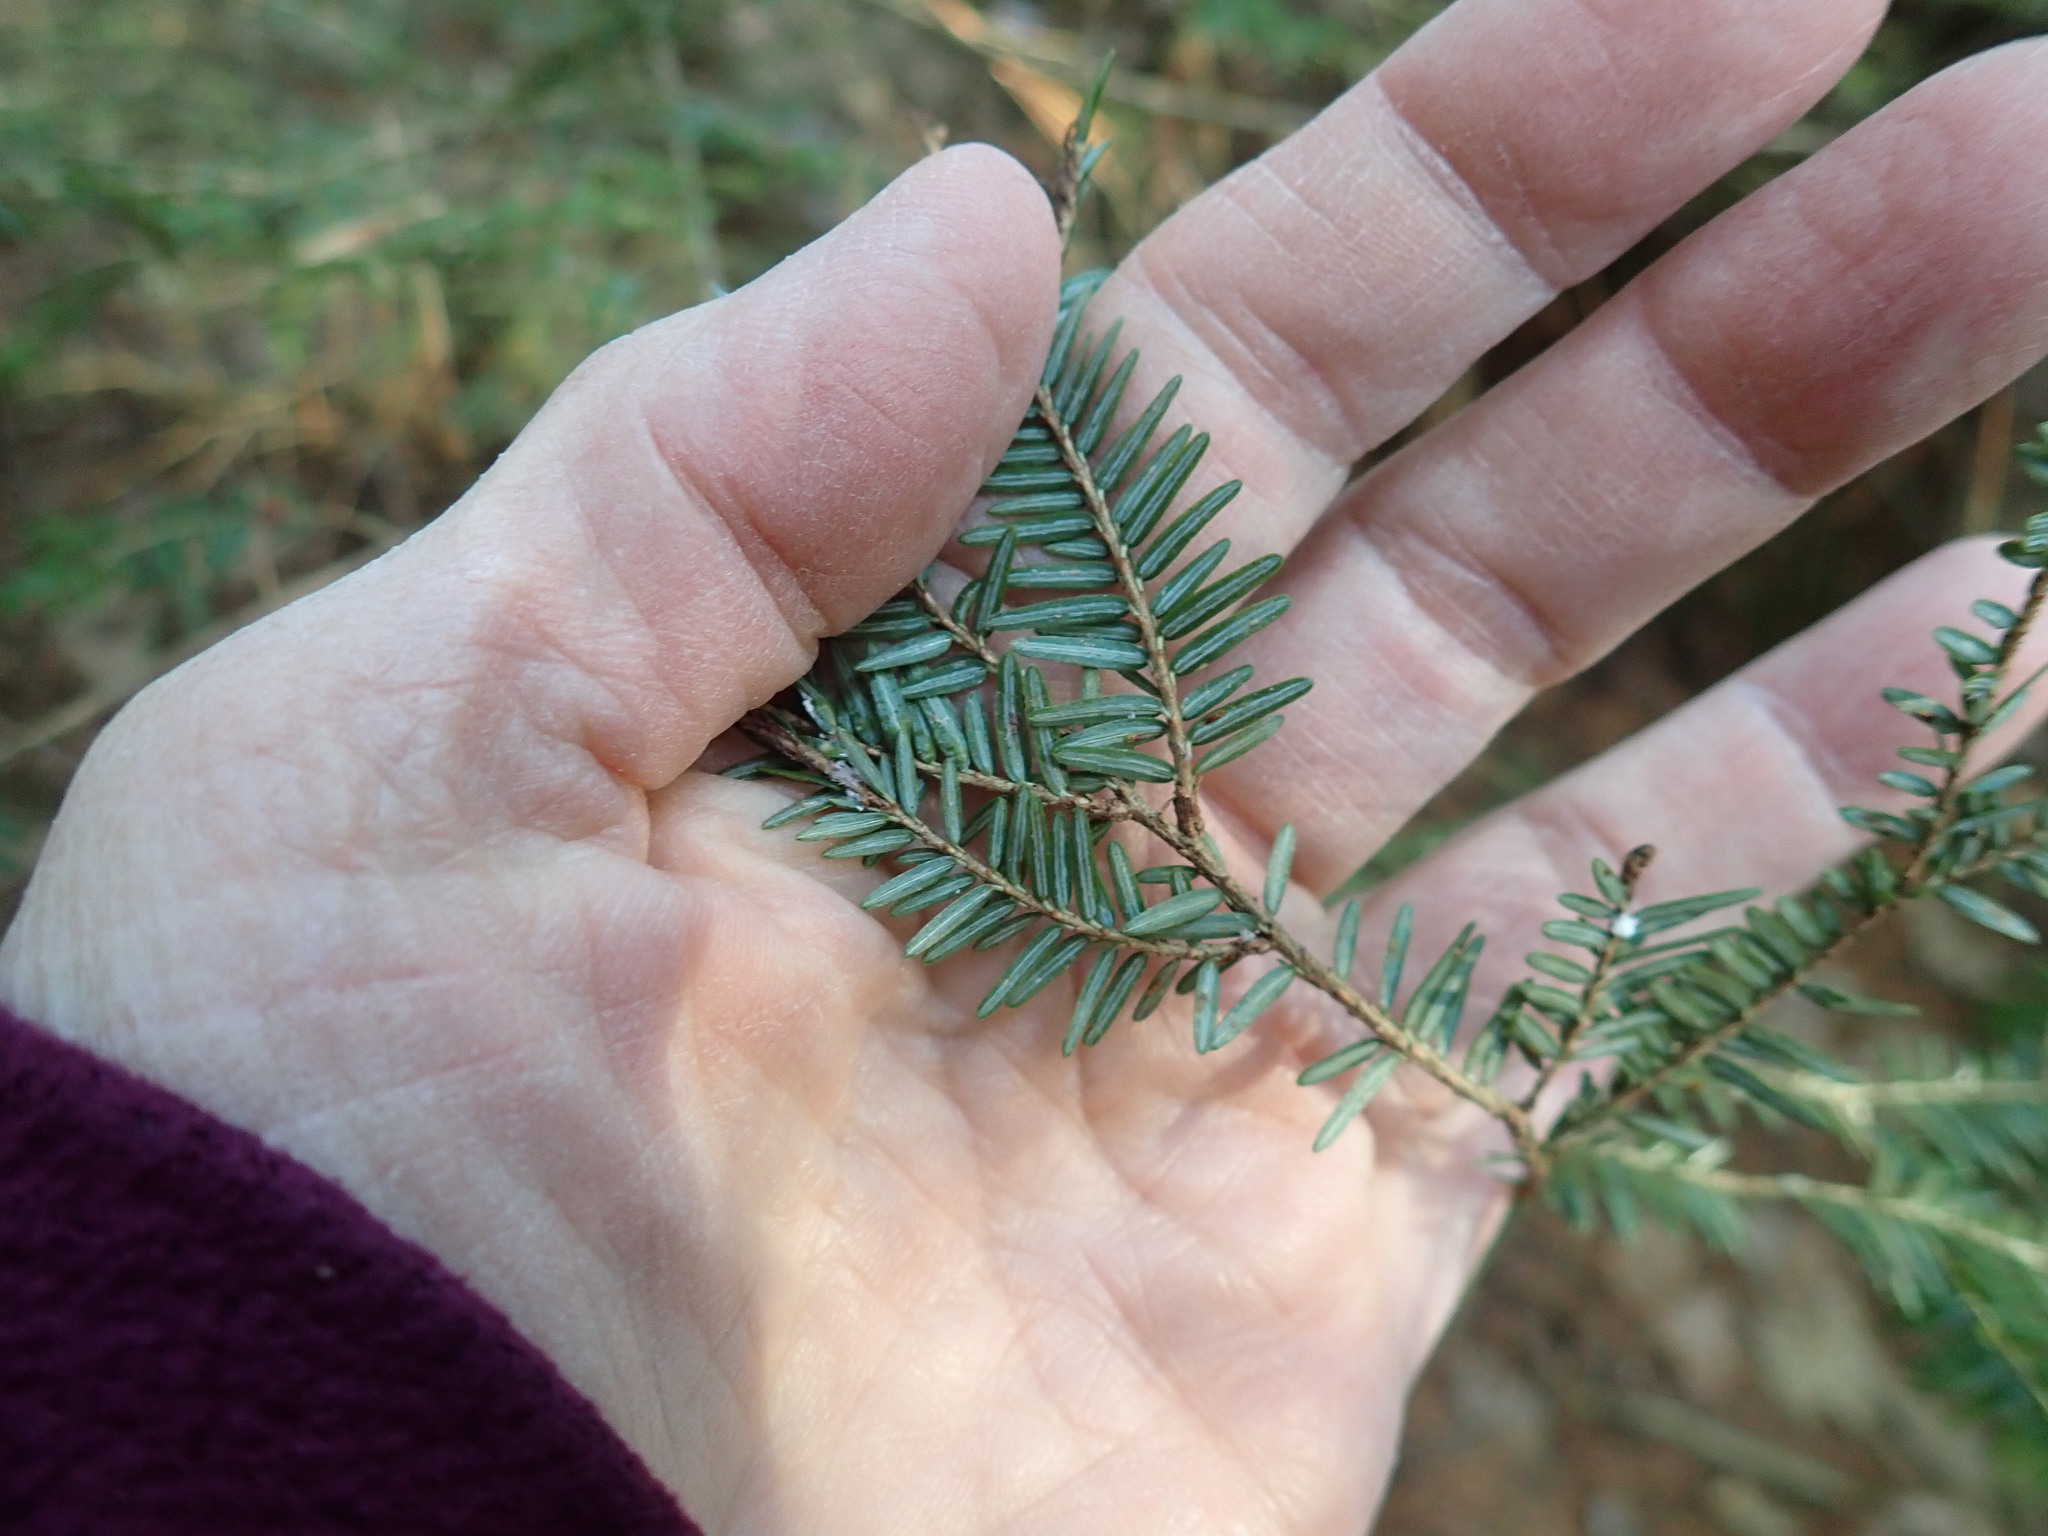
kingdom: Plantae
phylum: Tracheophyta
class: Pinopsida
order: Pinales
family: Pinaceae
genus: Tsuga
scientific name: Tsuga canadensis
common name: Eastern hemlock
